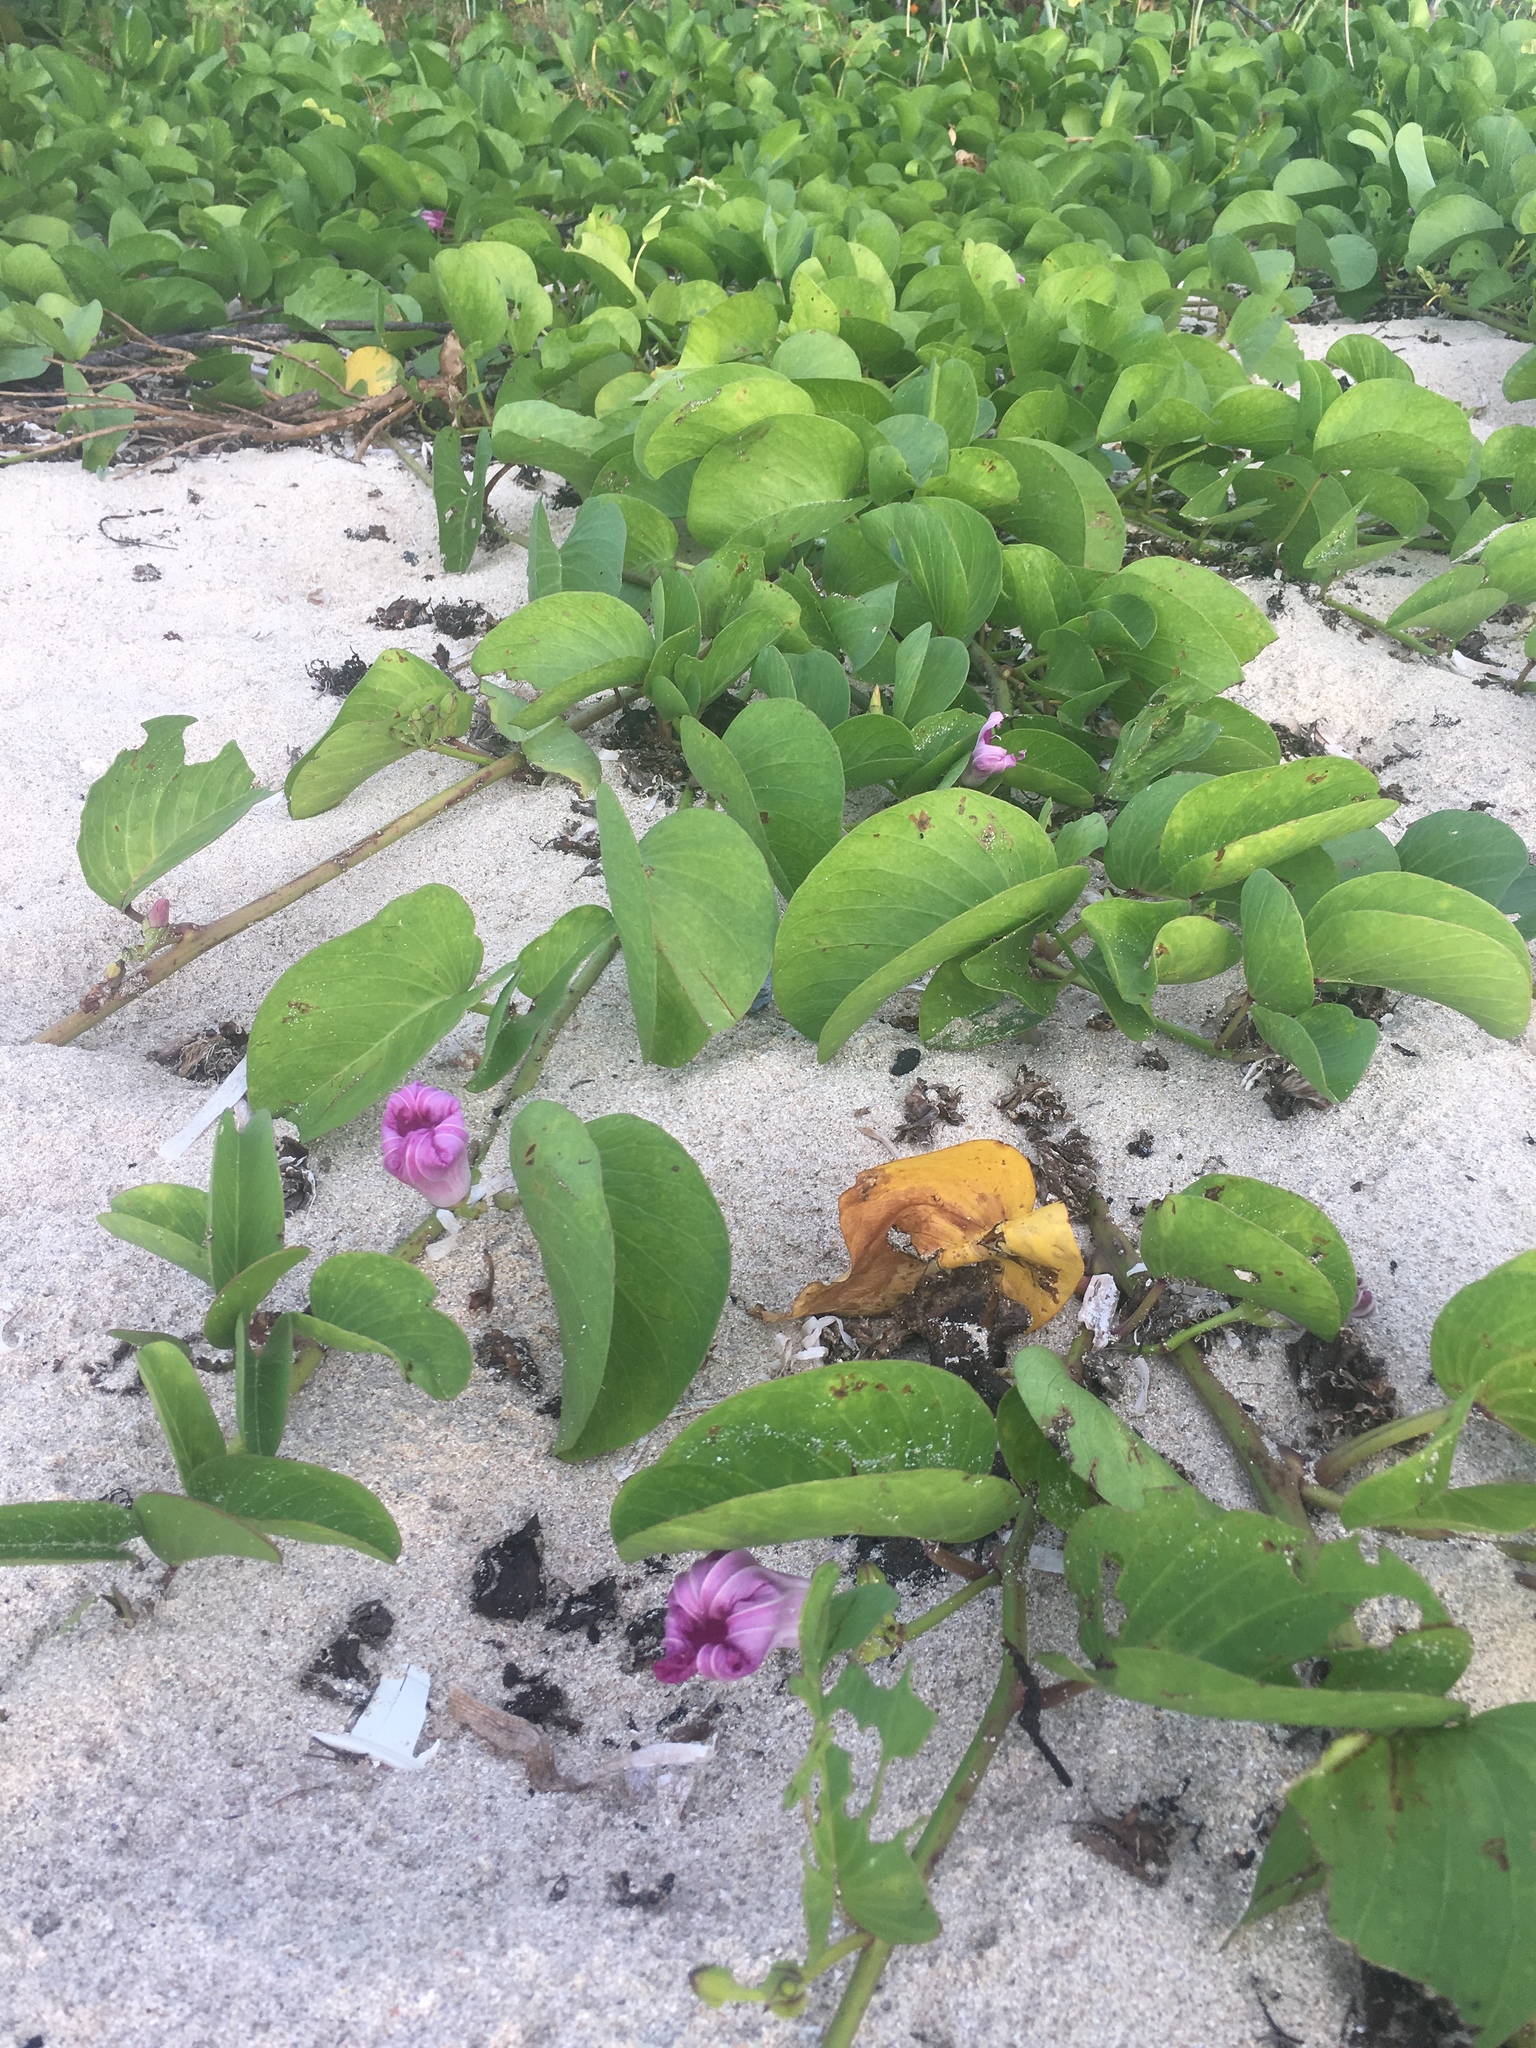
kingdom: Plantae
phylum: Tracheophyta
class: Magnoliopsida
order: Solanales
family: Convolvulaceae
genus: Ipomoea
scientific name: Ipomoea pes-caprae
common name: Beach morning glory
